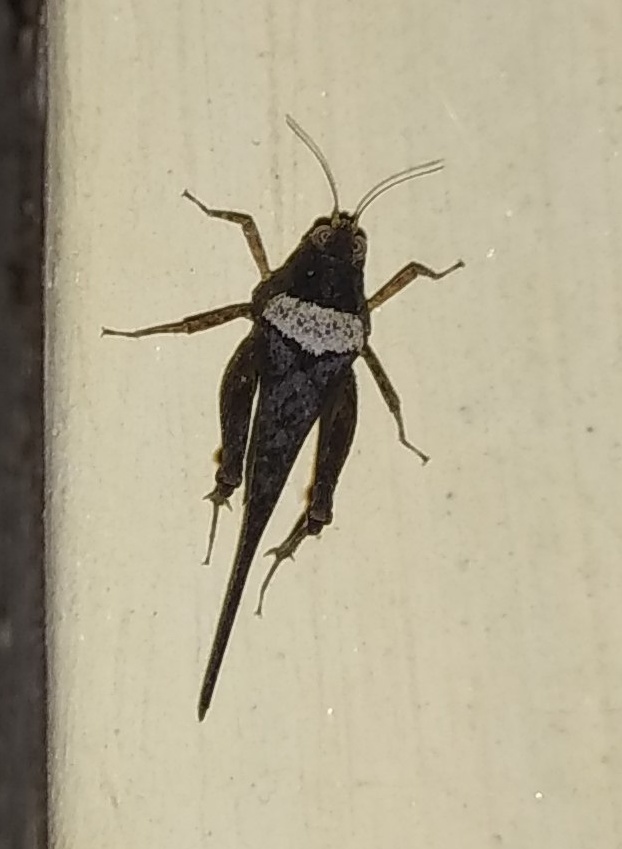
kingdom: Animalia
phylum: Arthropoda
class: Insecta
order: Orthoptera
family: Tetrigidae
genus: Euparatettix
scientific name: Euparatettix nodulosus
